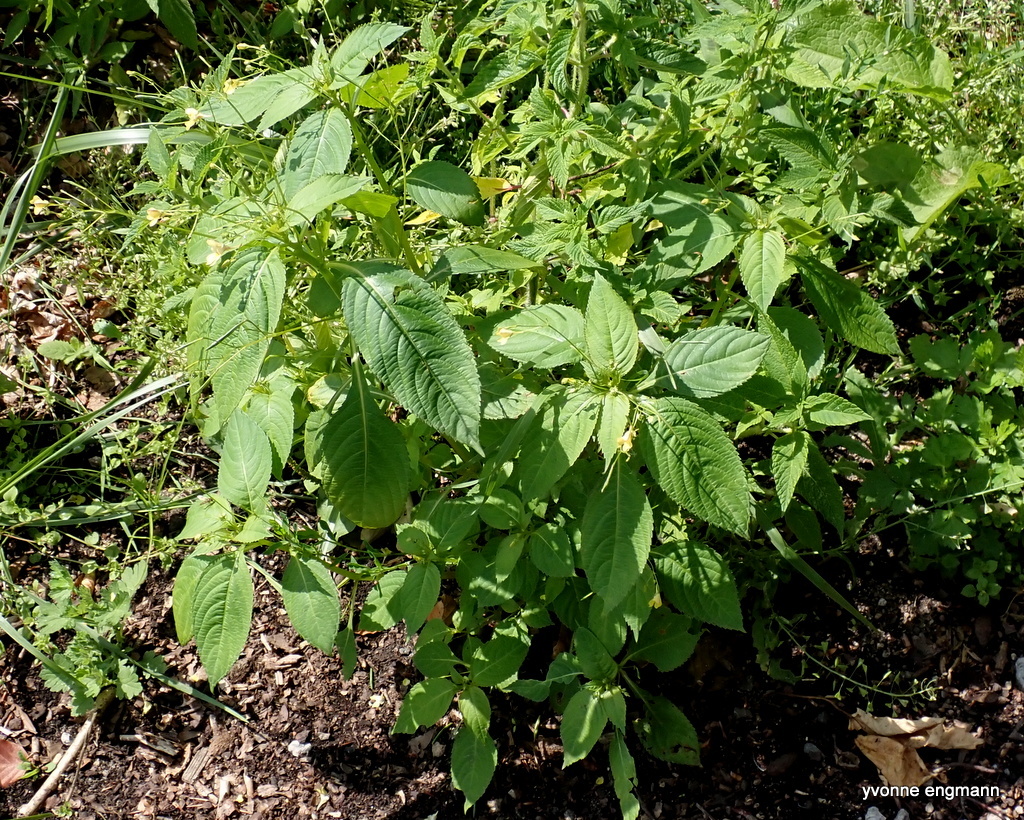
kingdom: Plantae
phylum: Tracheophyta
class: Magnoliopsida
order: Ericales
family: Balsaminaceae
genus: Impatiens
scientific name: Impatiens parviflora
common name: Small balsam
